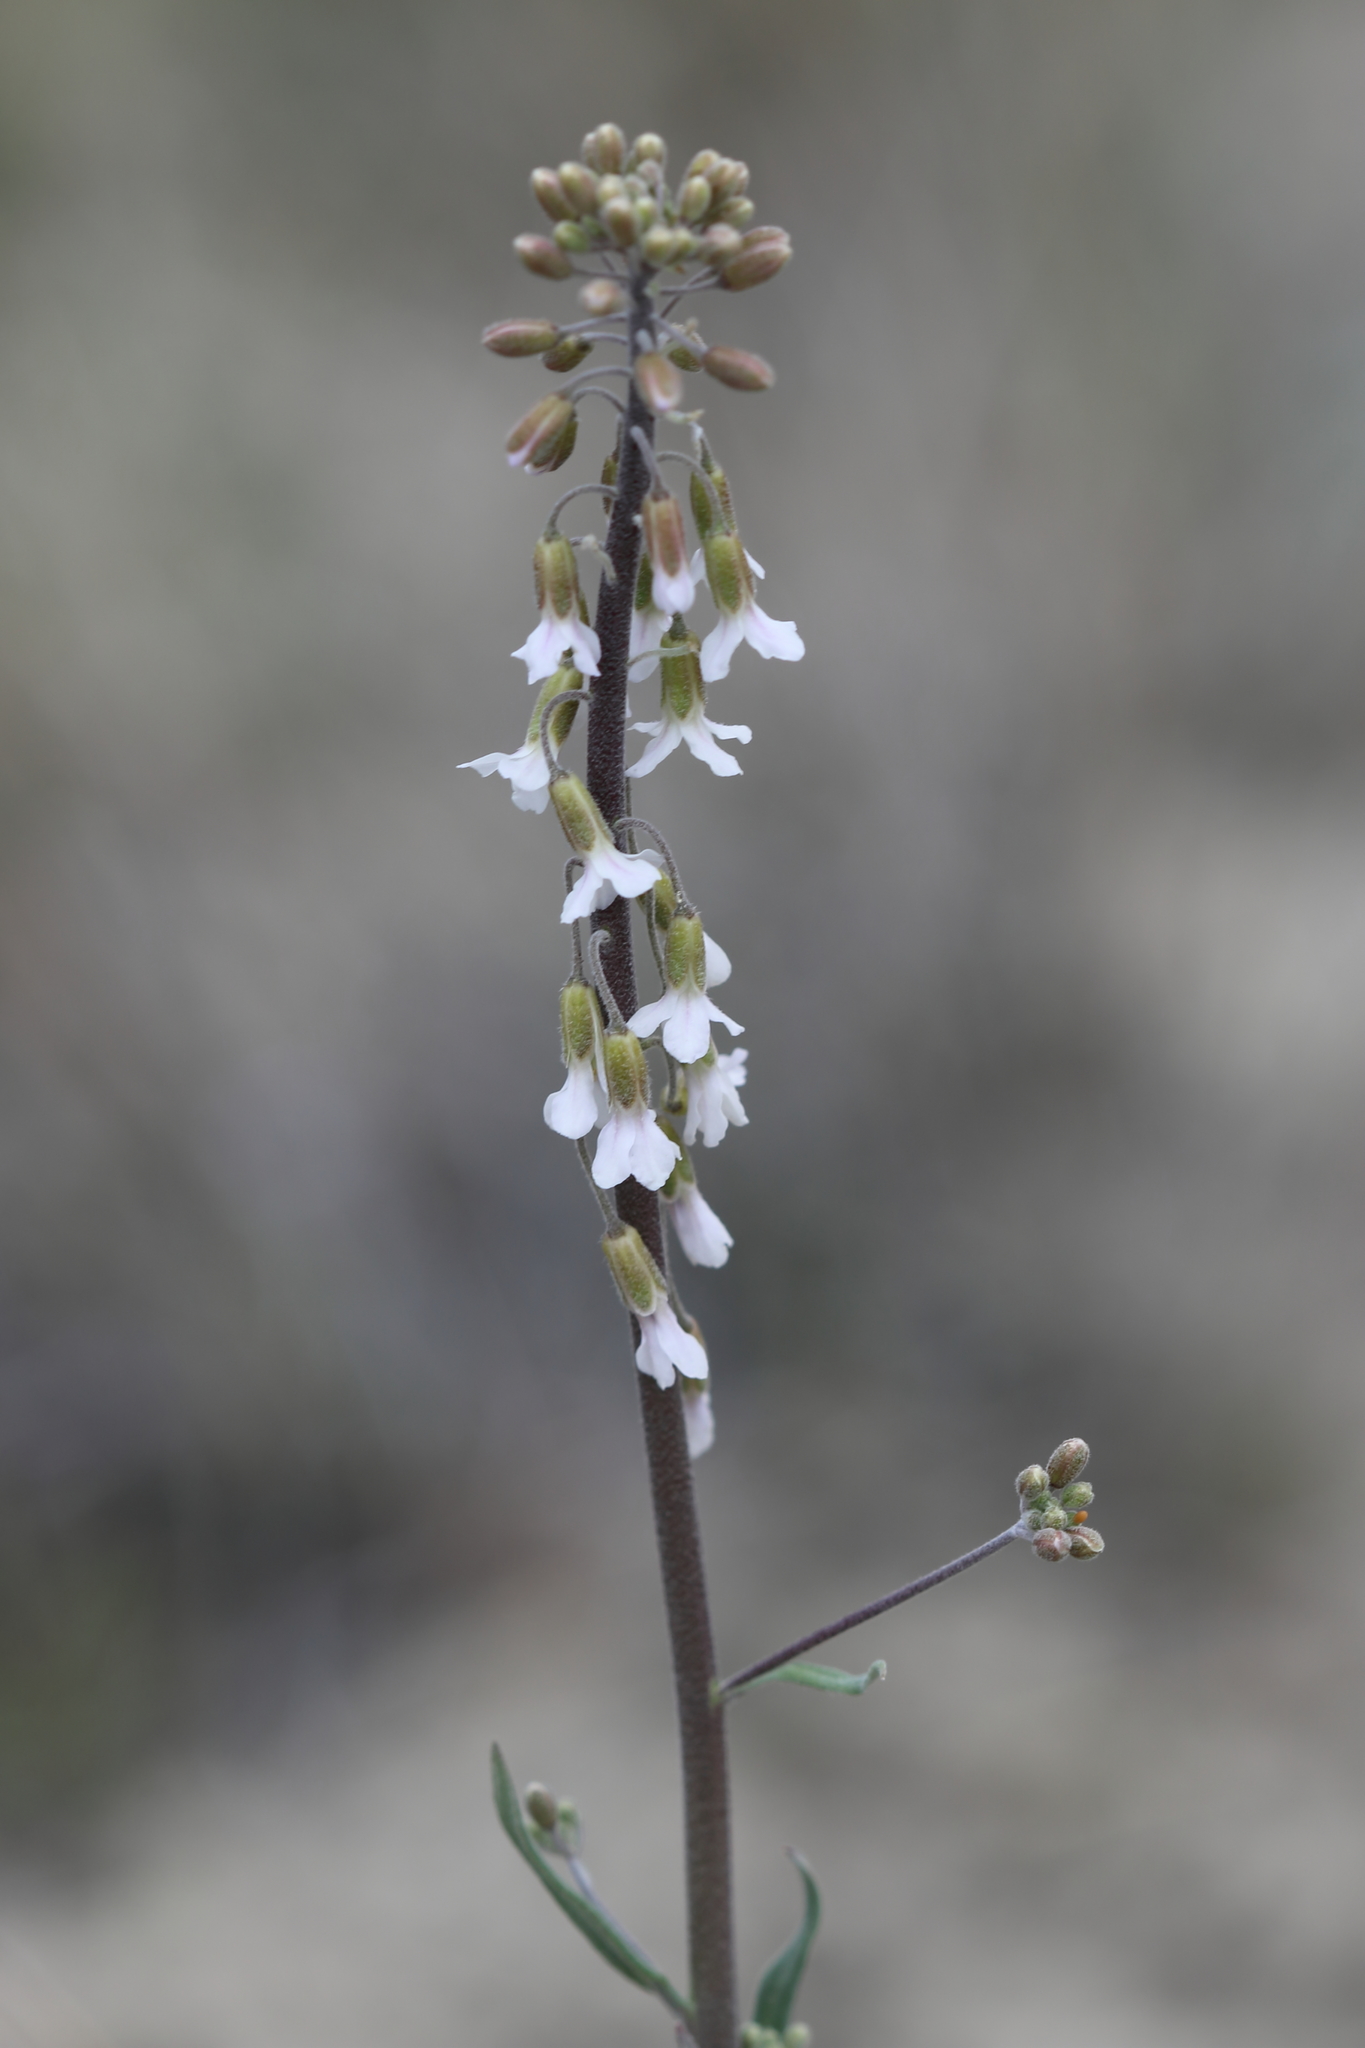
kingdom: Plantae
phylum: Tracheophyta
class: Magnoliopsida
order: Brassicales
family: Brassicaceae
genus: Boechera
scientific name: Boechera retrofracta
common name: Dangling suncress
